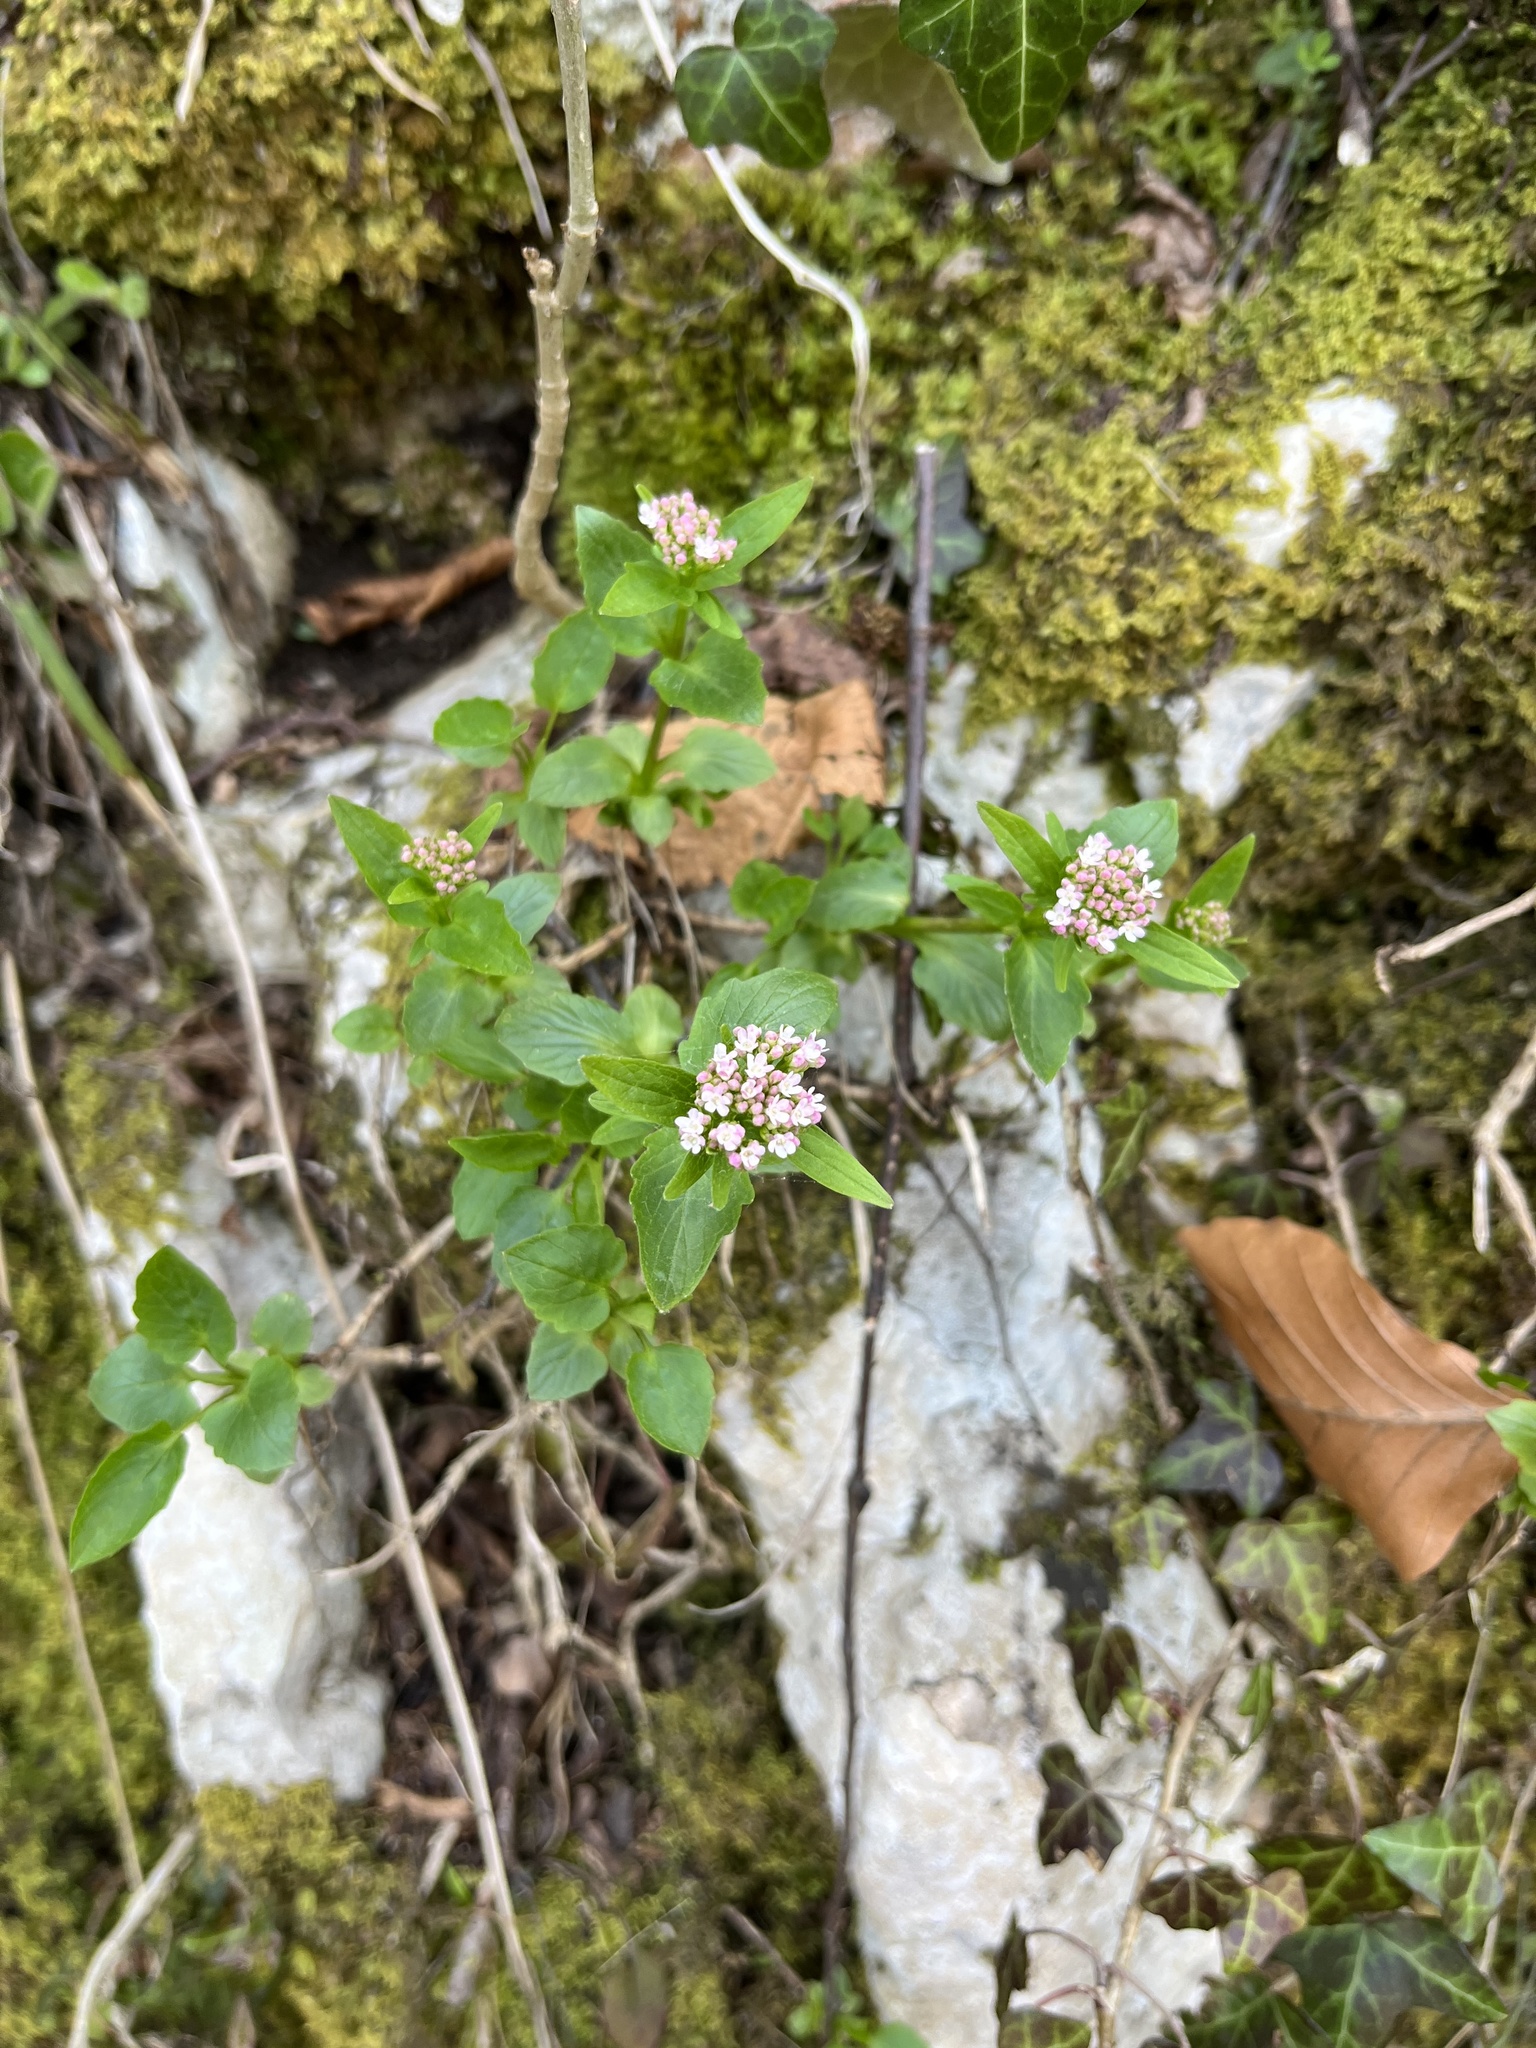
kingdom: Plantae
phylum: Tracheophyta
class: Magnoliopsida
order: Dipsacales
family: Caprifoliaceae
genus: Valeriana
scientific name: Valeriana tripteris
